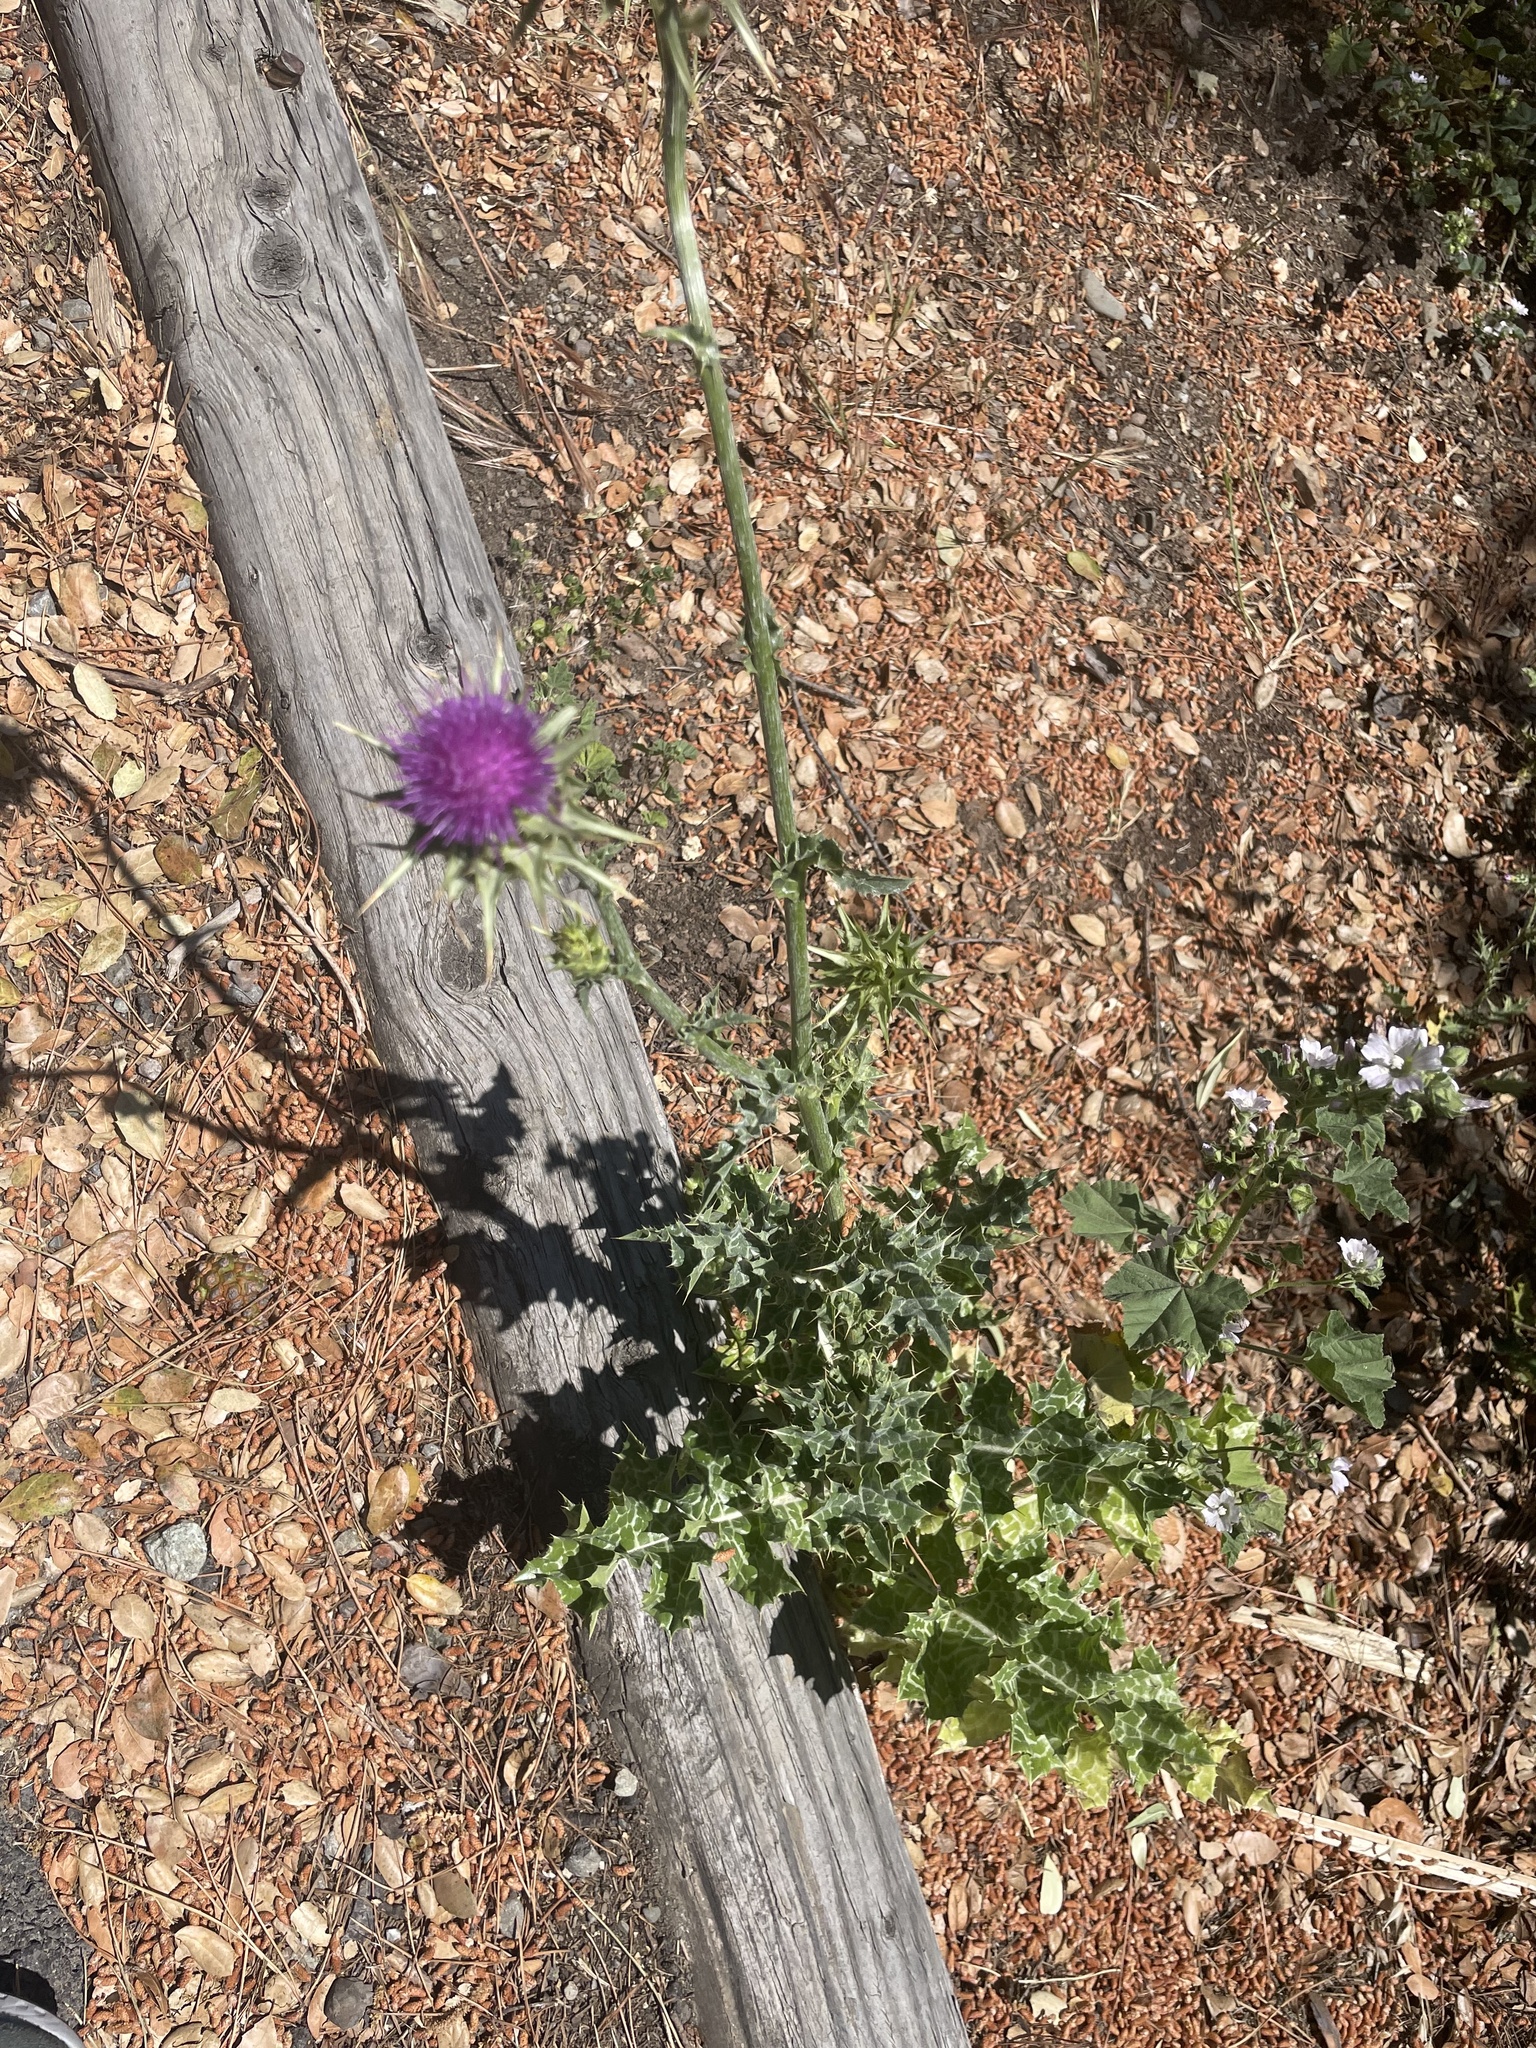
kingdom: Plantae
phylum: Tracheophyta
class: Magnoliopsida
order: Asterales
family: Asteraceae
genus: Silybum
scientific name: Silybum marianum
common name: Milk thistle
